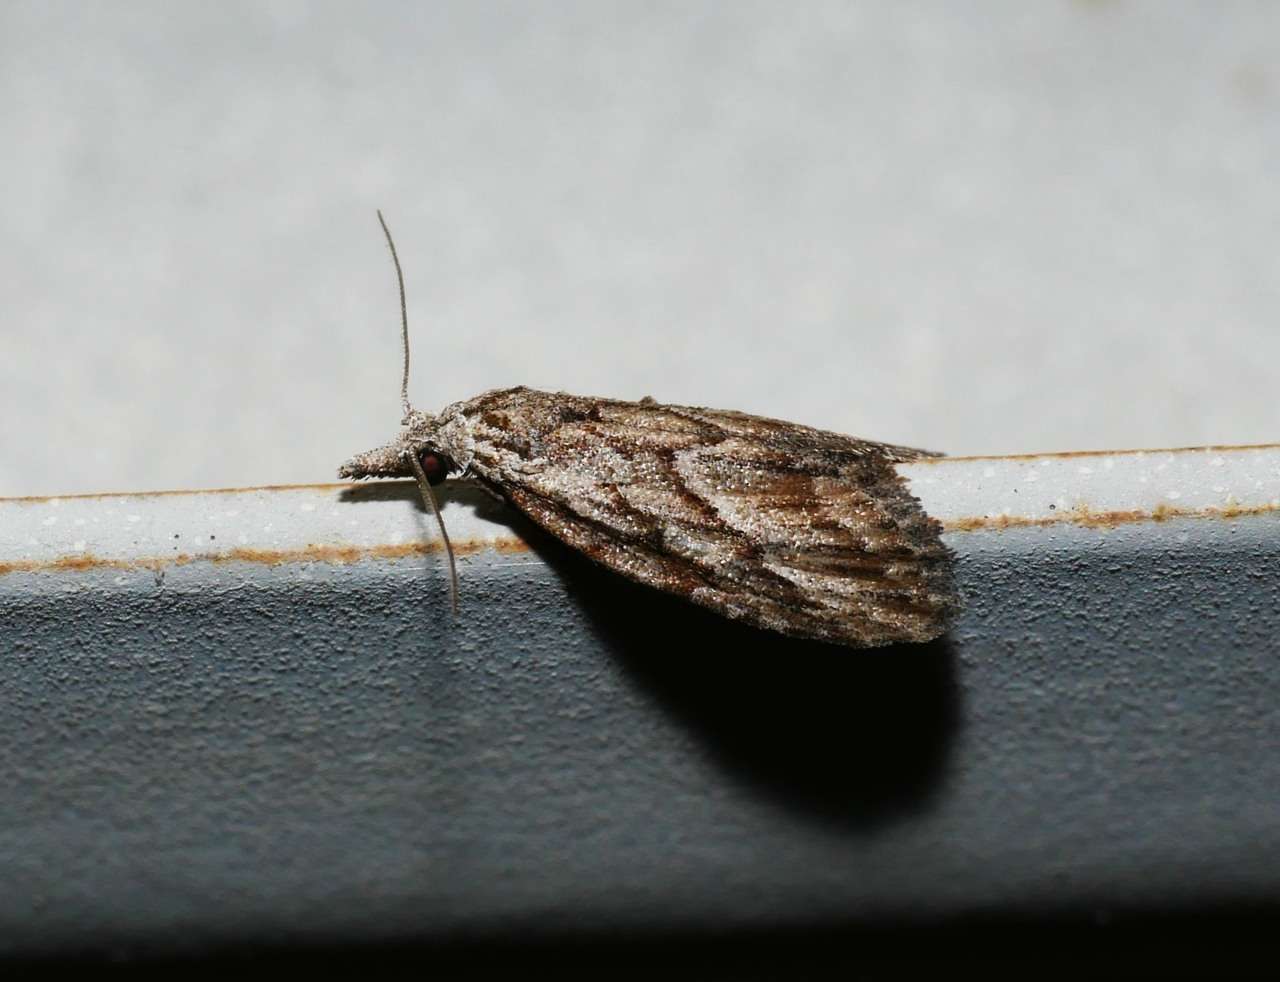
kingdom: Animalia
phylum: Arthropoda
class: Insecta
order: Lepidoptera
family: Nolidae
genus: Nola
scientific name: Nola phaeogramma
